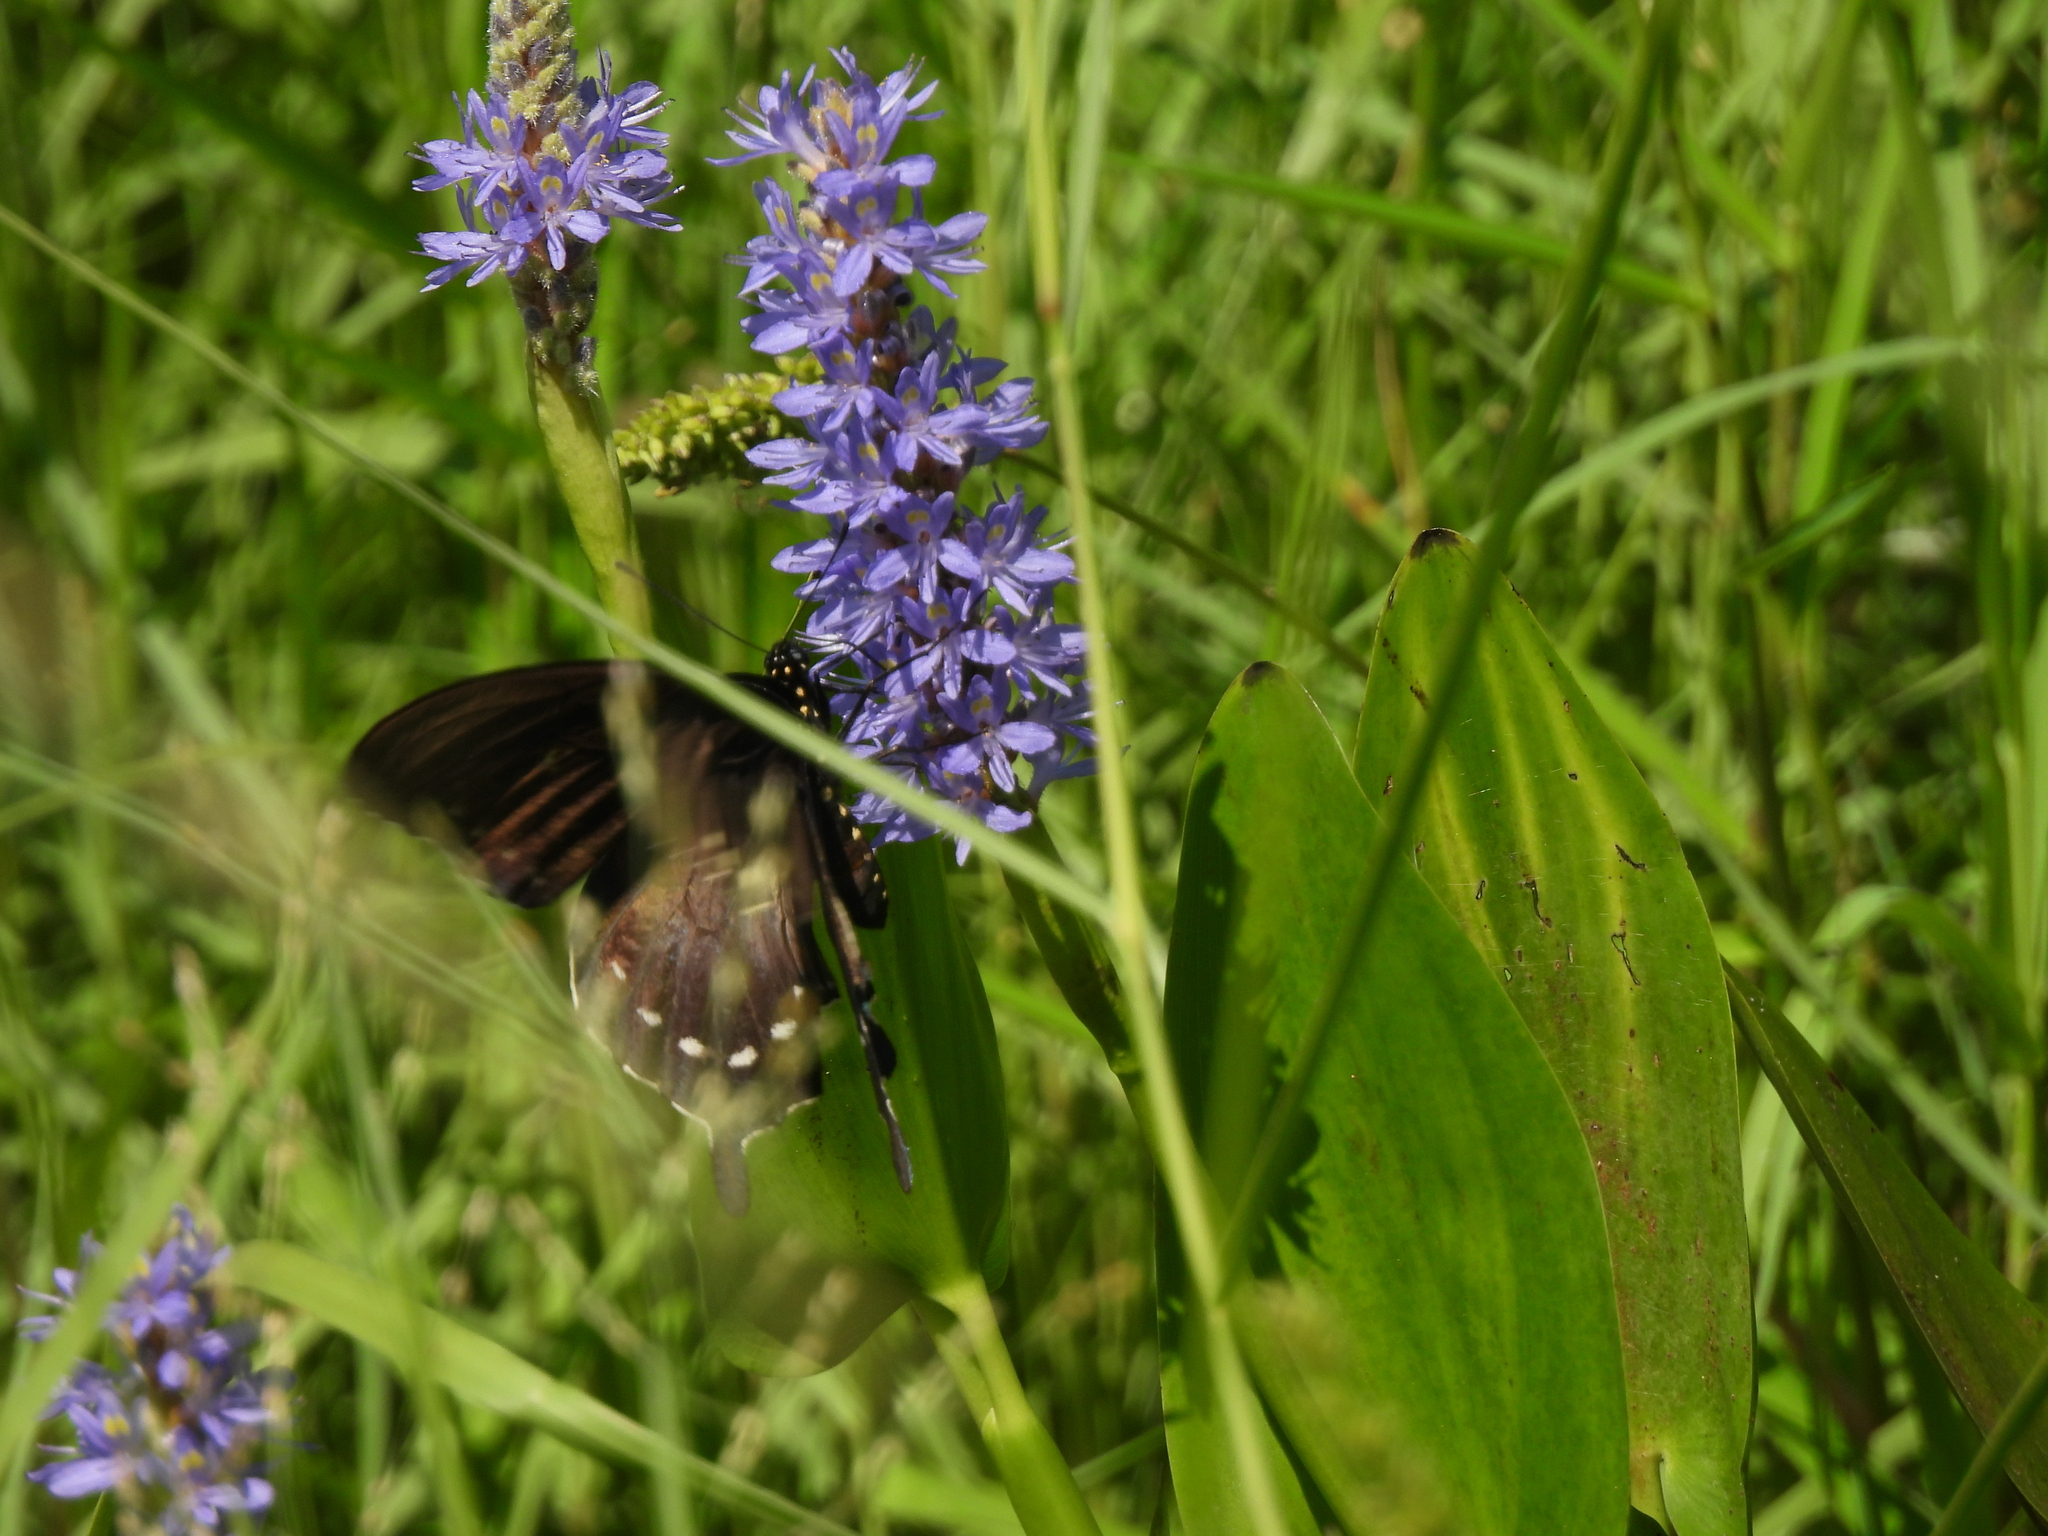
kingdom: Animalia
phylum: Arthropoda
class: Insecta
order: Lepidoptera
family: Papilionidae
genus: Battus
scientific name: Battus philenor
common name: Pipevine swallowtail
